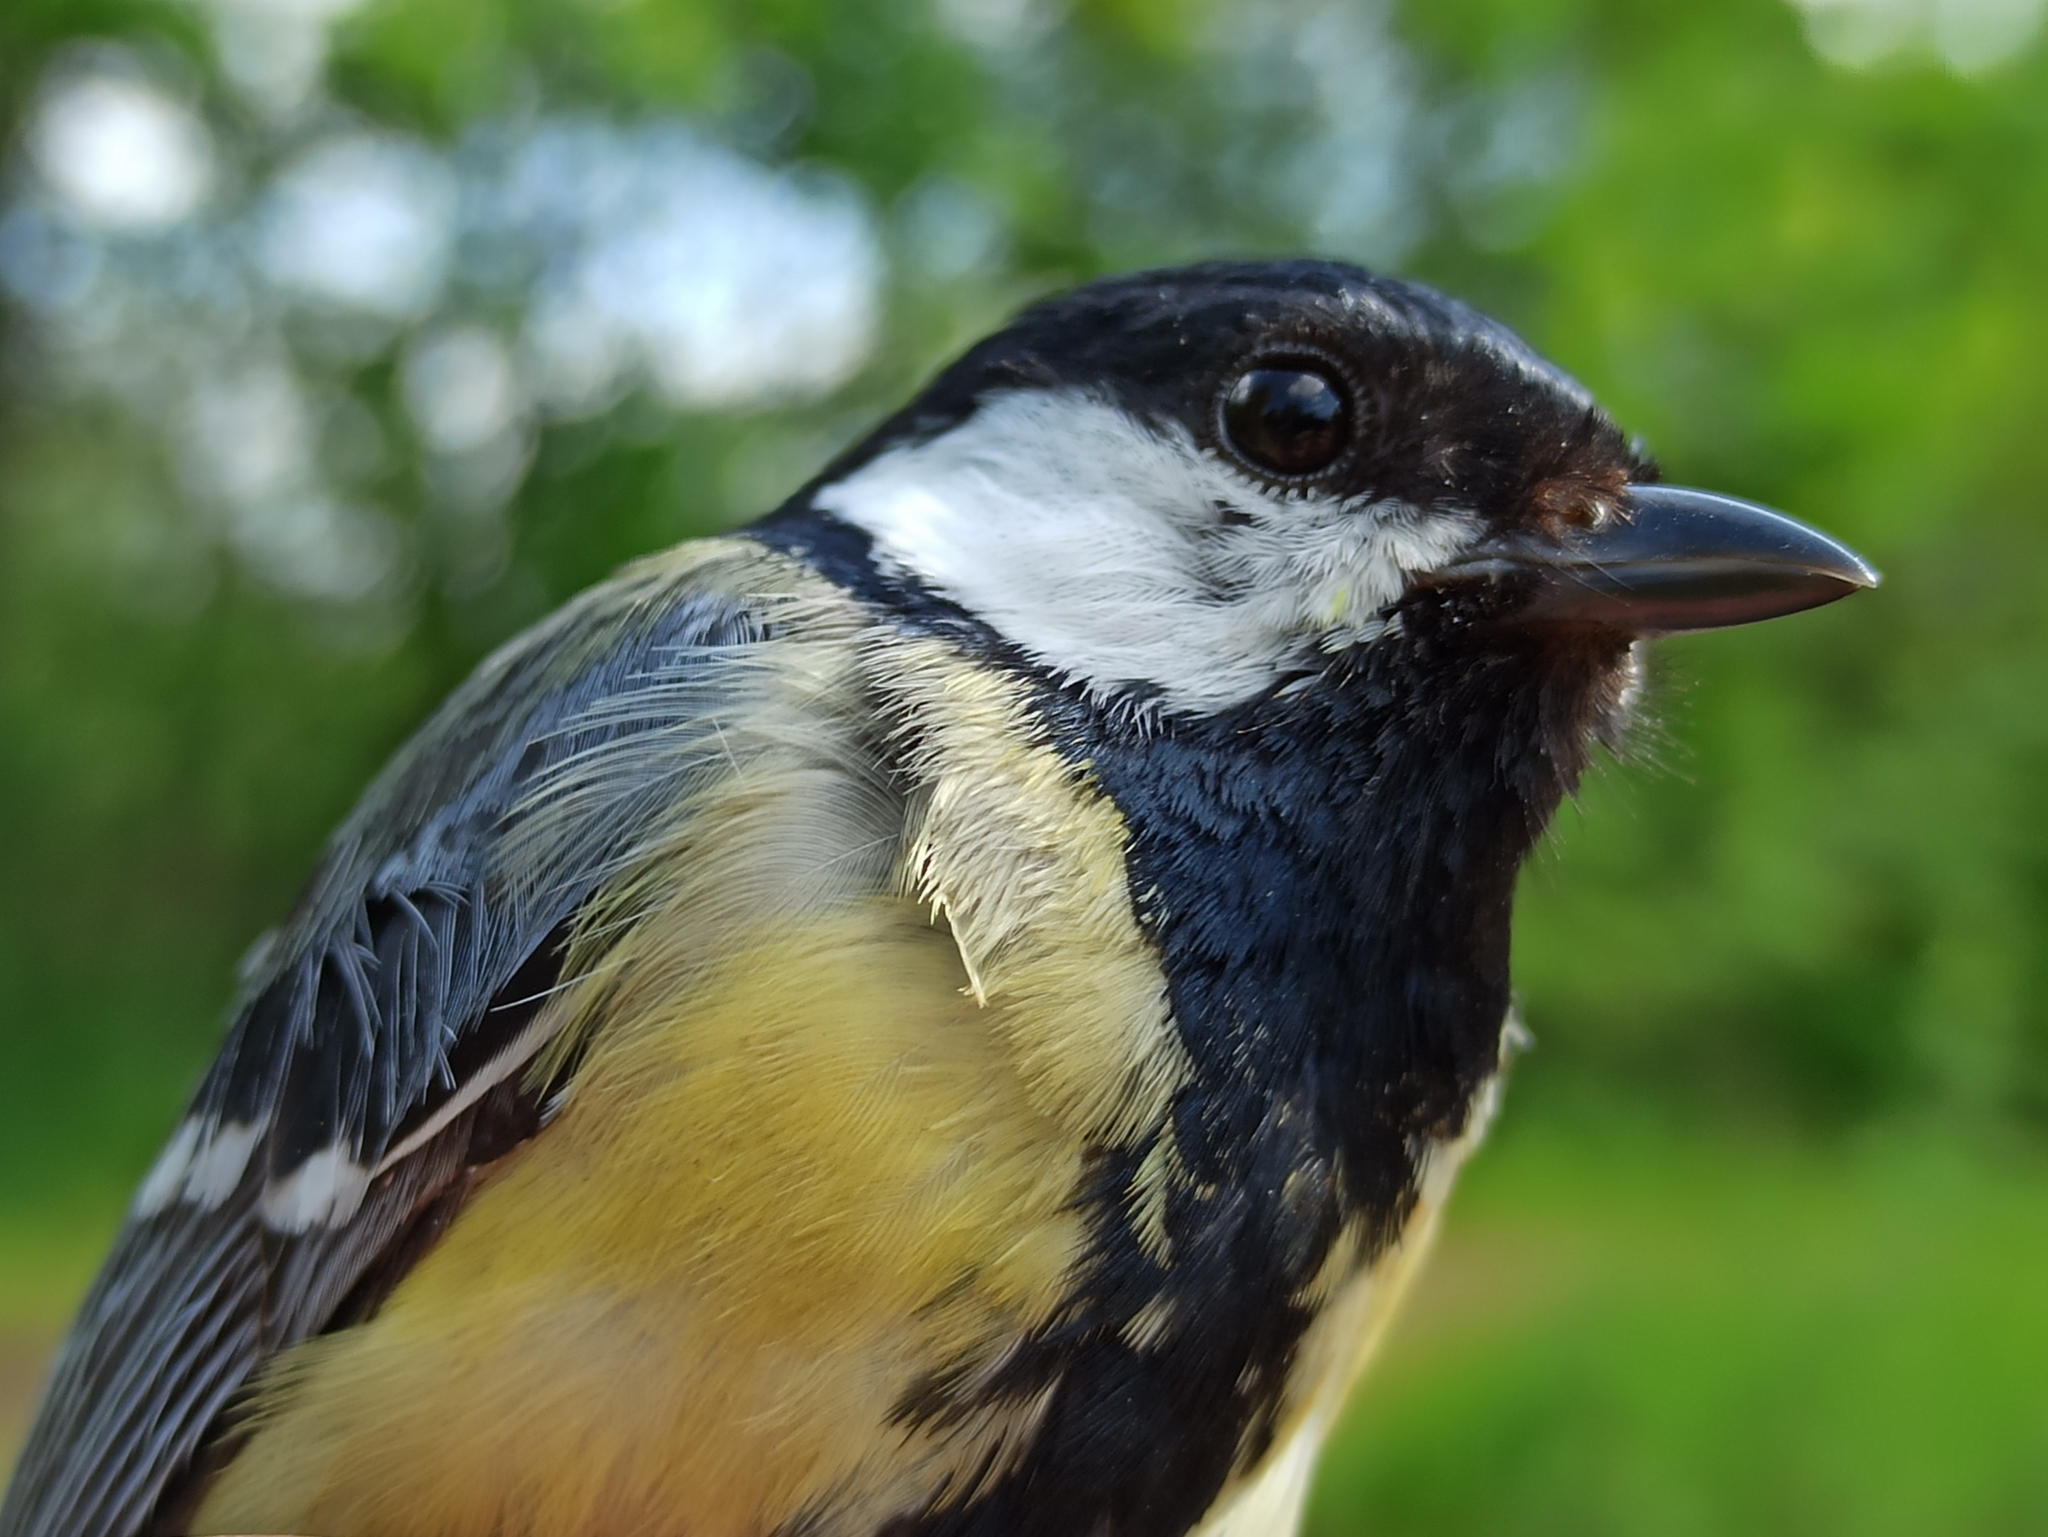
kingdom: Animalia
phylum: Chordata
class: Aves
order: Passeriformes
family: Paridae
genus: Parus
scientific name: Parus major
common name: Great tit
